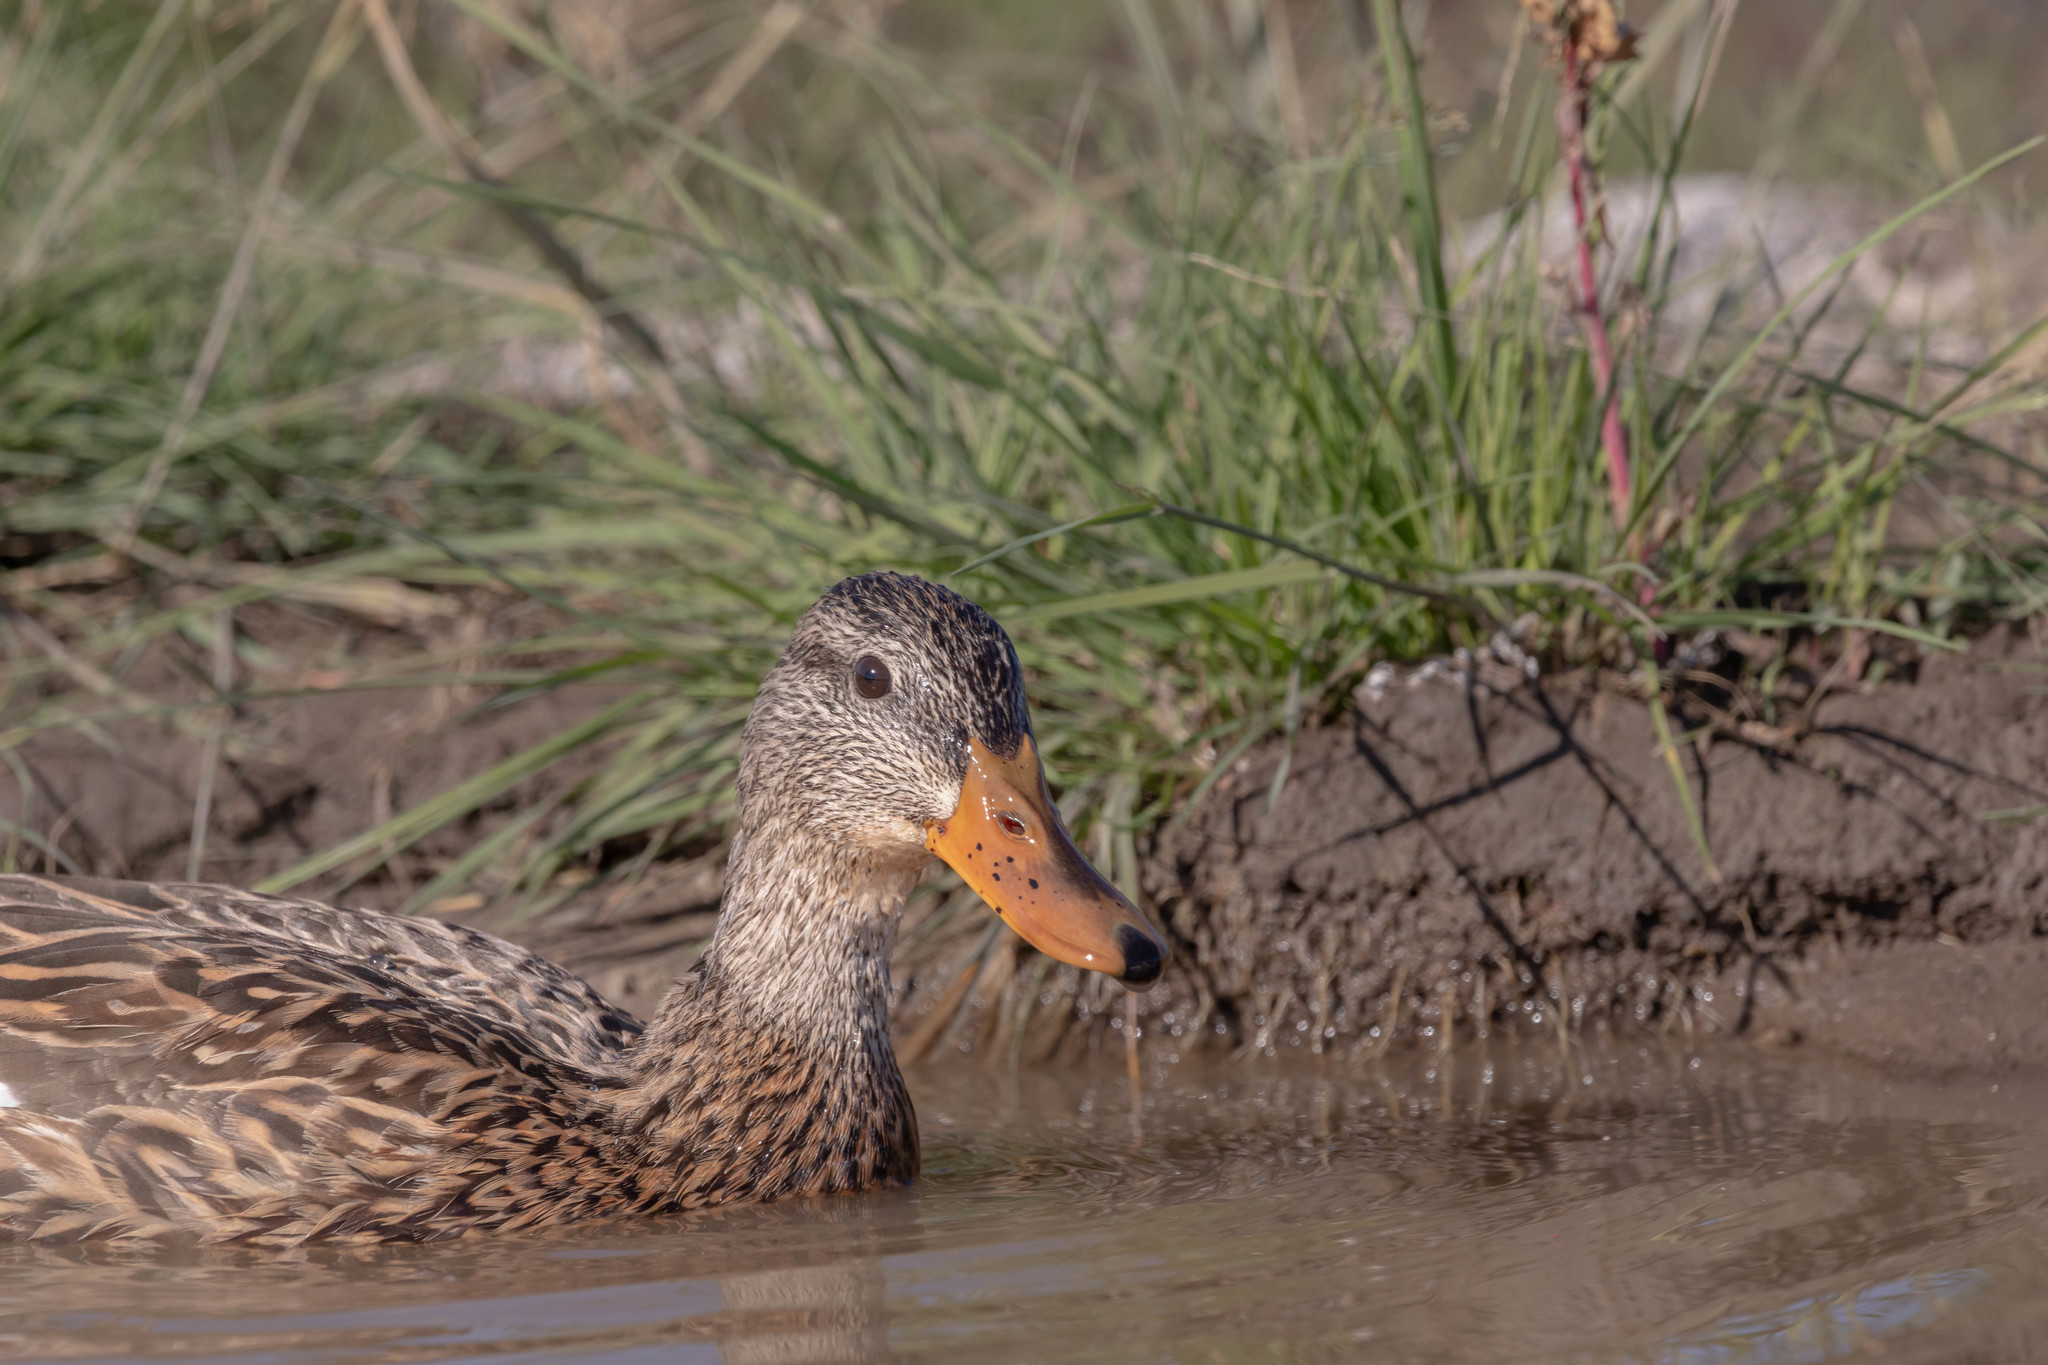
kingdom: Animalia
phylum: Chordata
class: Aves
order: Anseriformes
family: Anatidae
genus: Anas
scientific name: Anas platyrhynchos
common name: Mallard
